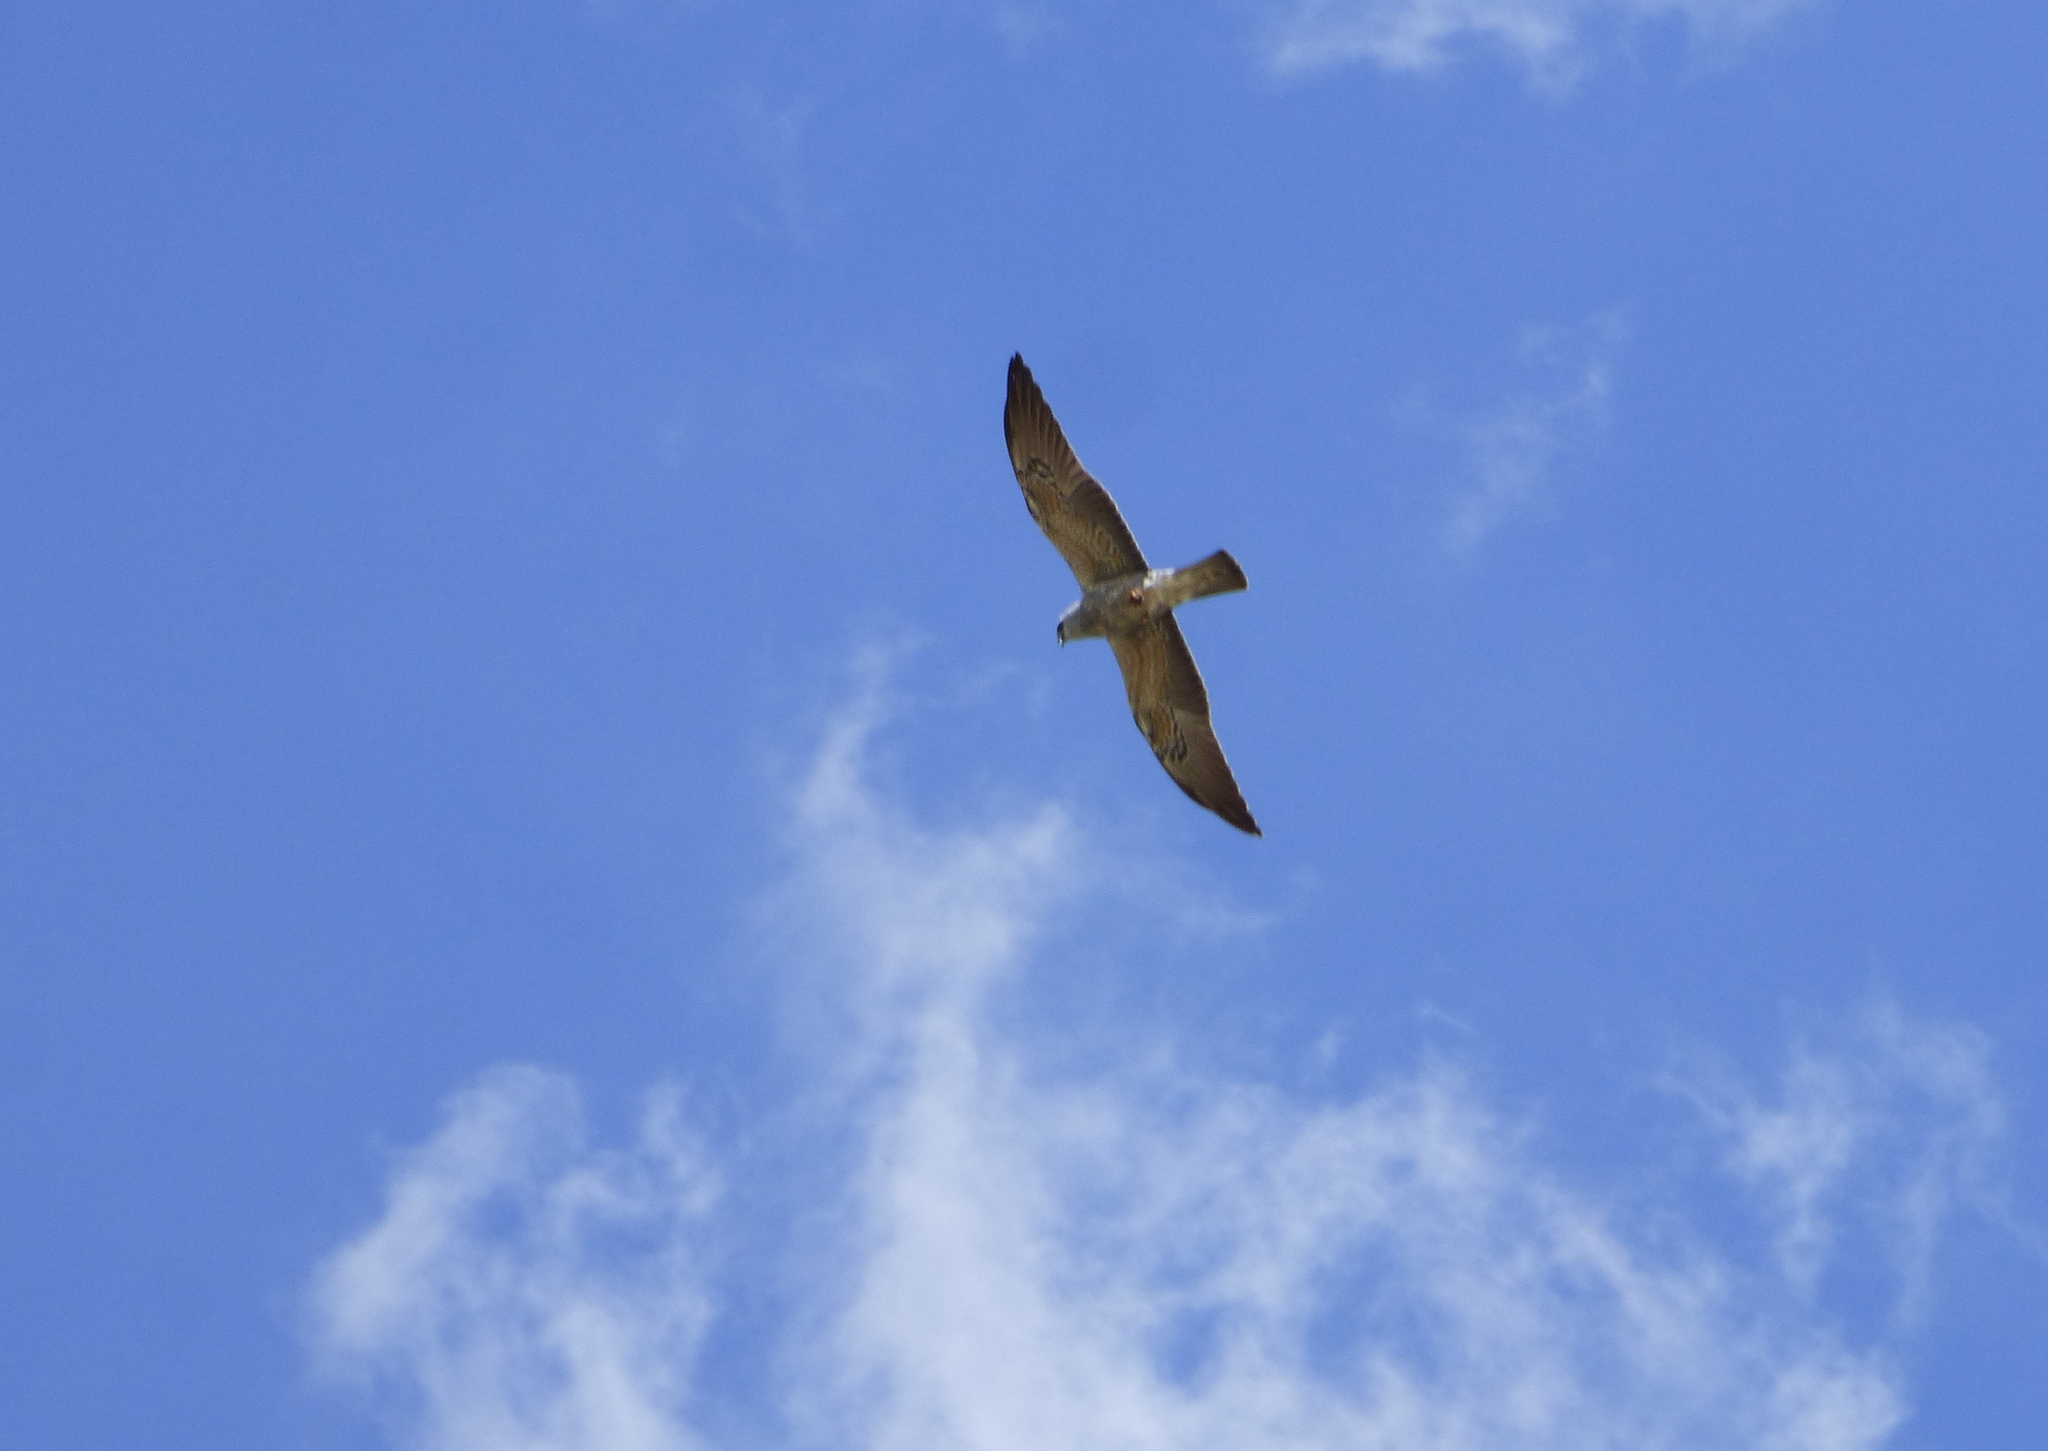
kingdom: Animalia
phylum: Chordata
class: Aves
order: Accipitriformes
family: Accipitridae
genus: Ictinia
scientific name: Ictinia mississippiensis
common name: Mississippi kite
